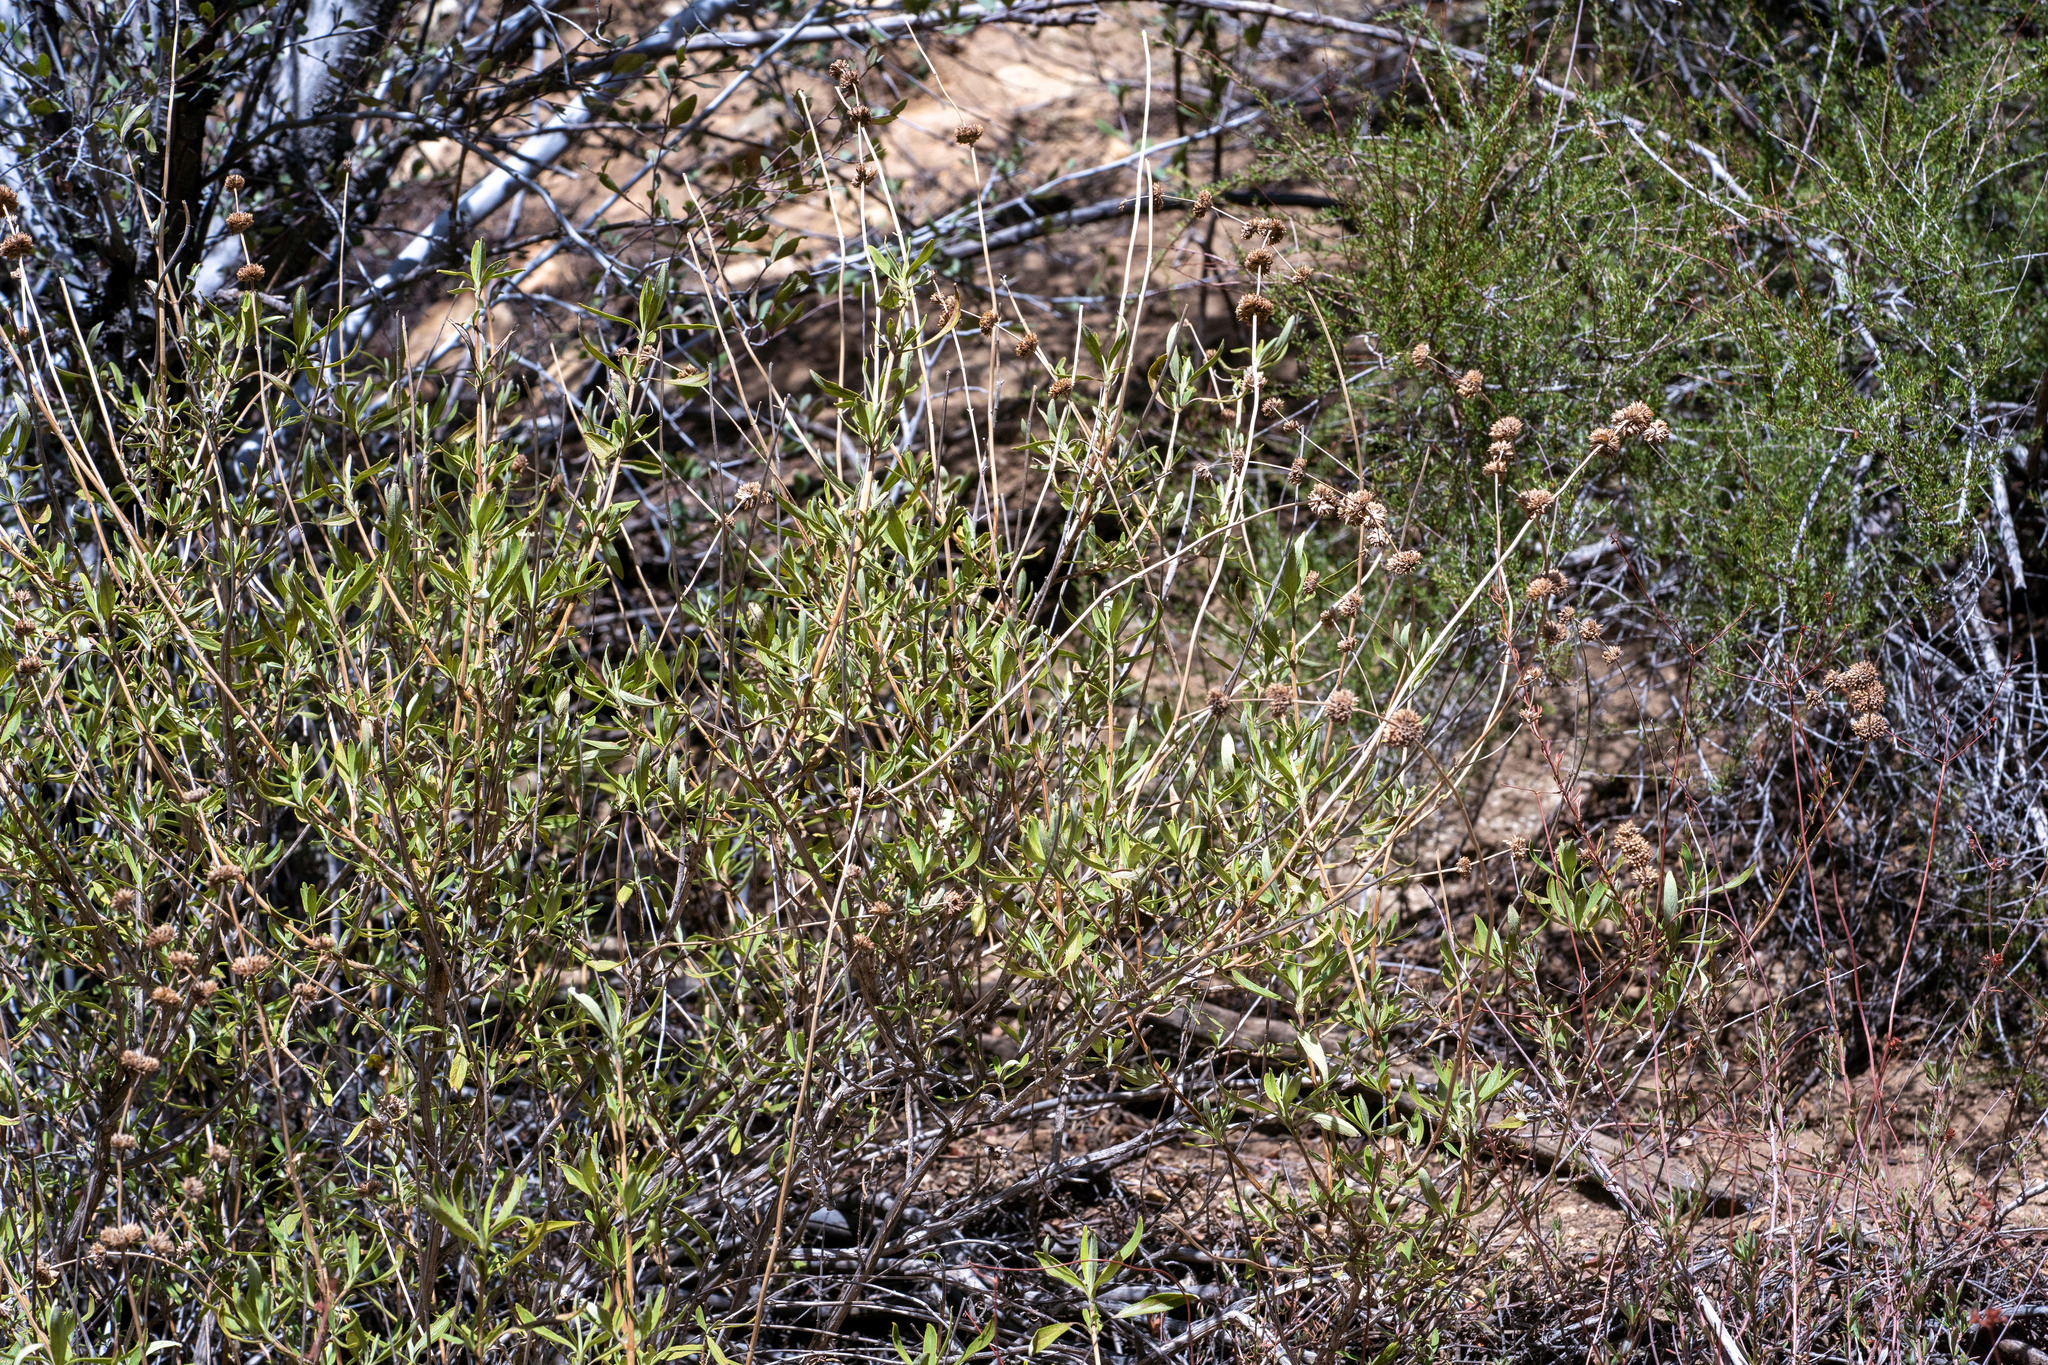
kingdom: Plantae
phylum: Tracheophyta
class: Magnoliopsida
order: Lamiales
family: Lamiaceae
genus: Salvia
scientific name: Salvia mellifera
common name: Black sage
